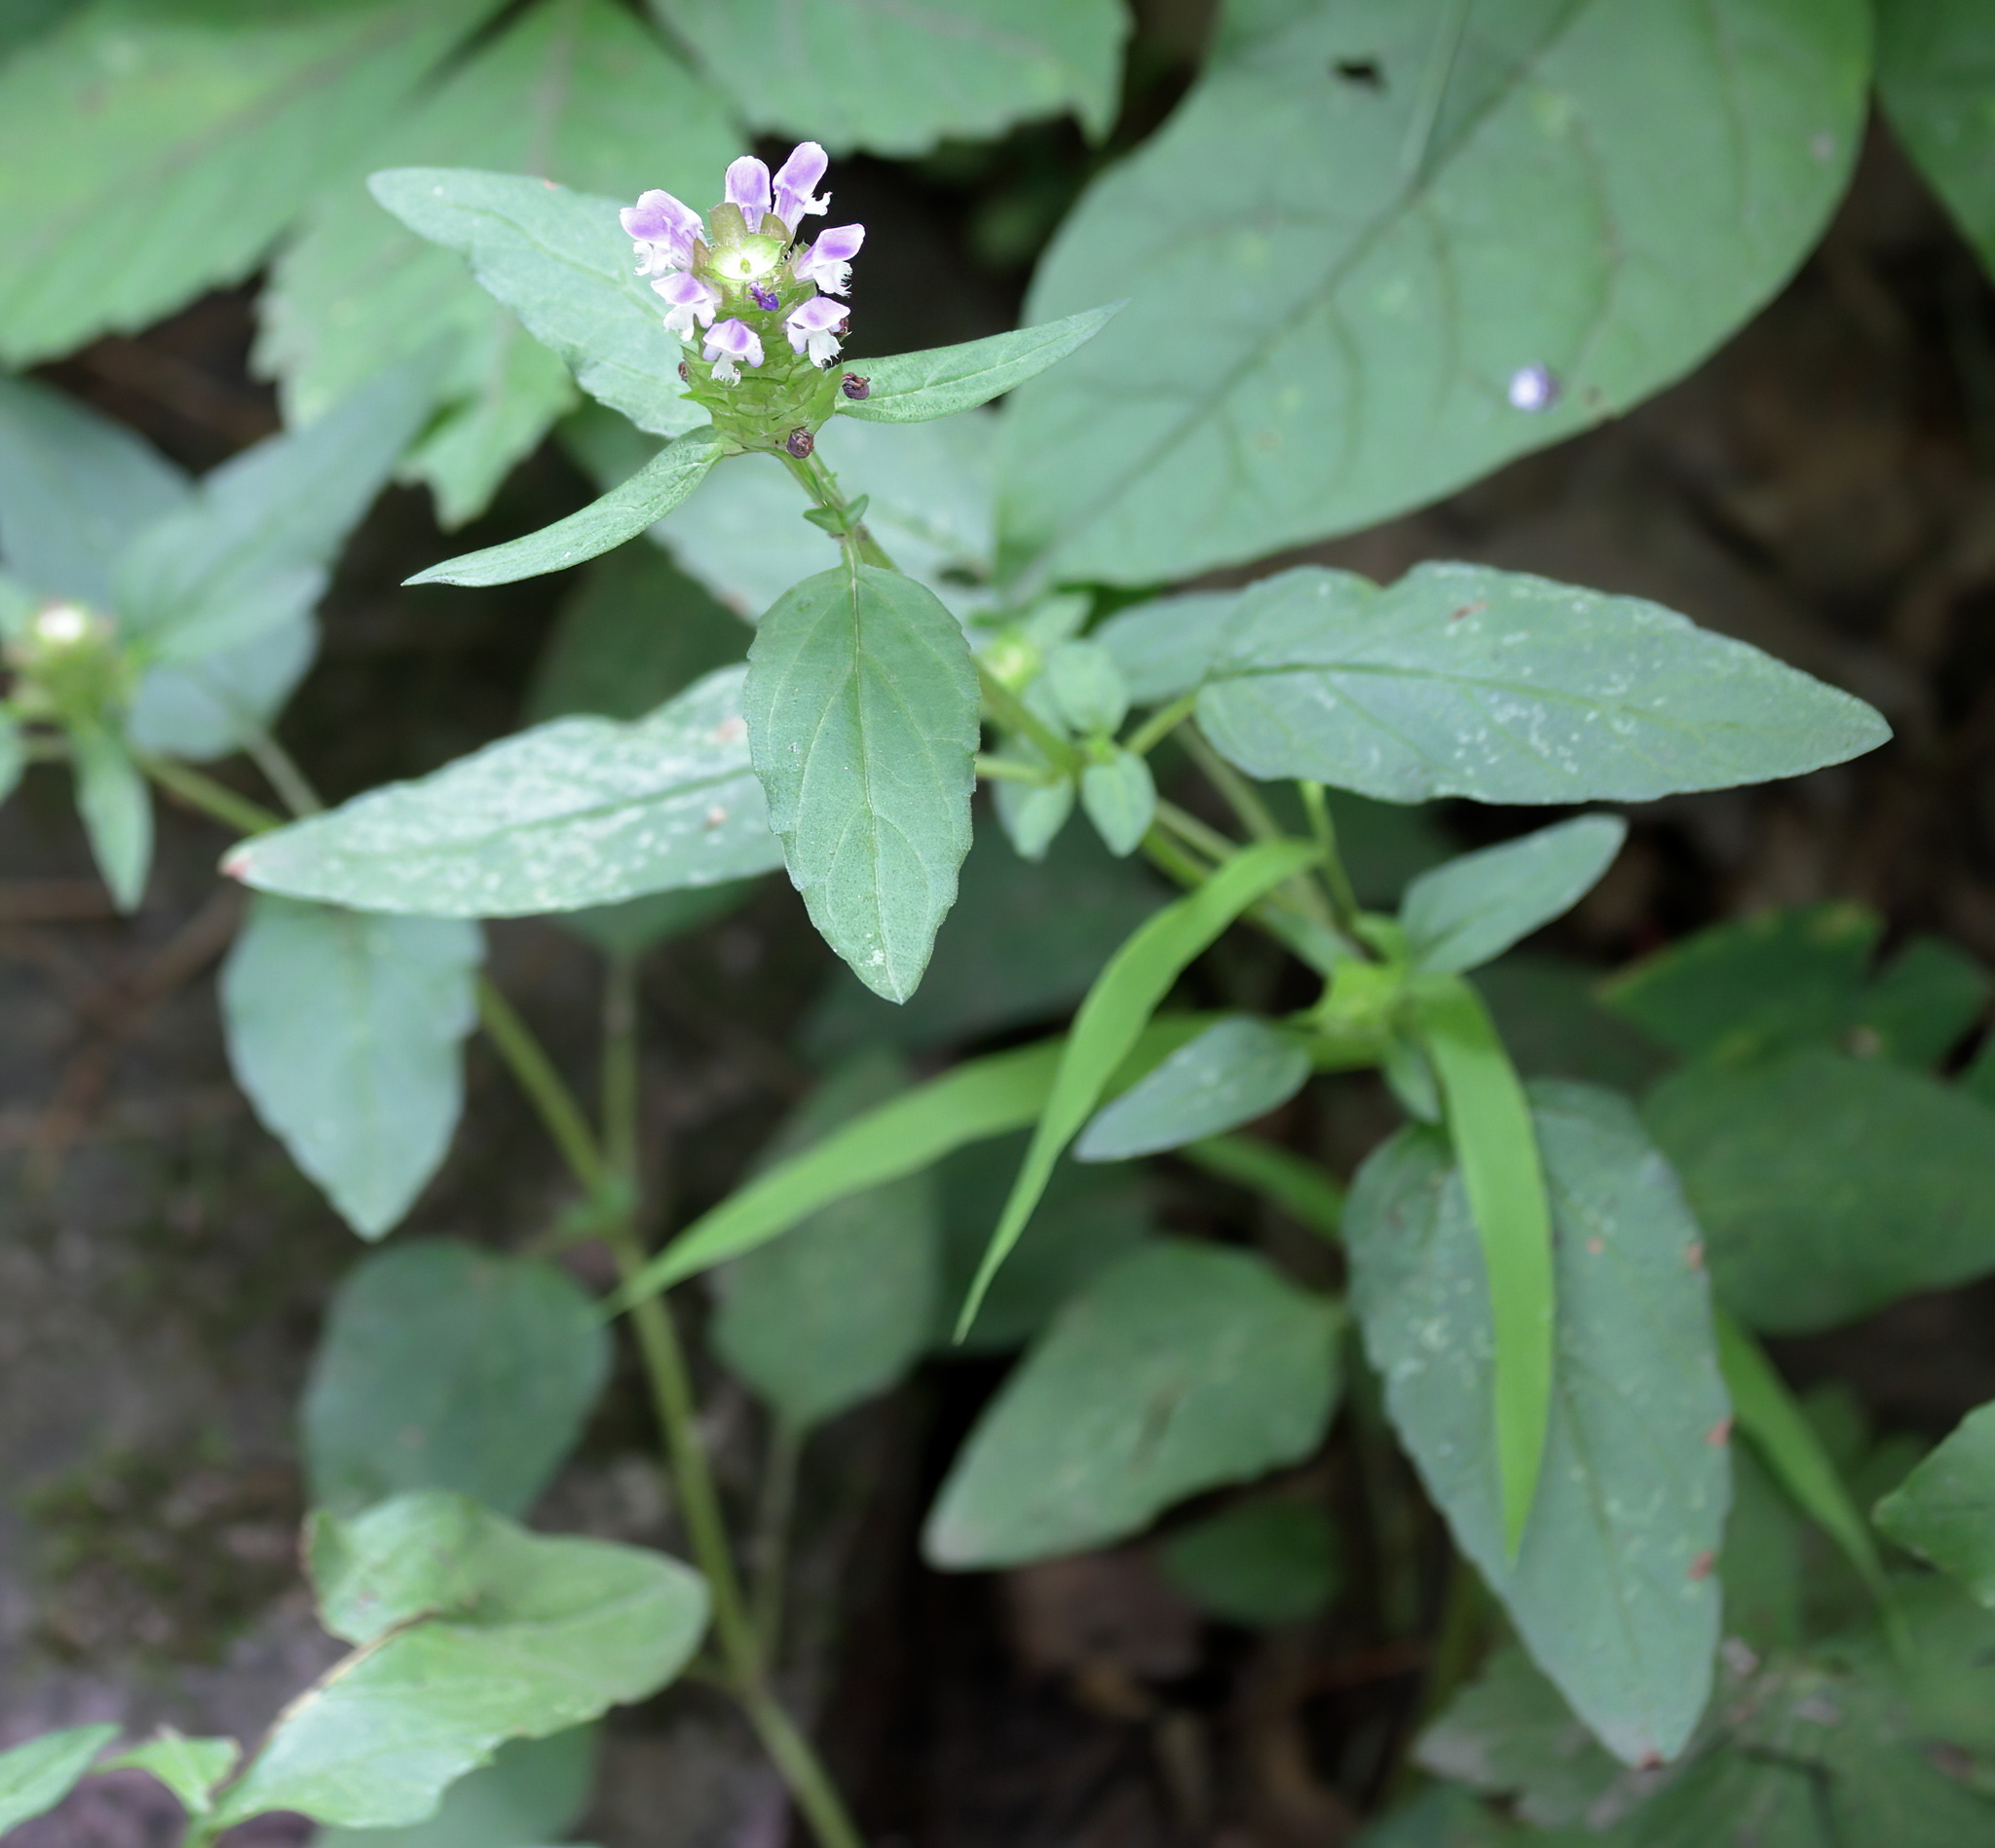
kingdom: Plantae
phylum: Tracheophyta
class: Magnoliopsida
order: Lamiales
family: Lamiaceae
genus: Prunella
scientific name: Prunella vulgaris
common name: Heal-all
